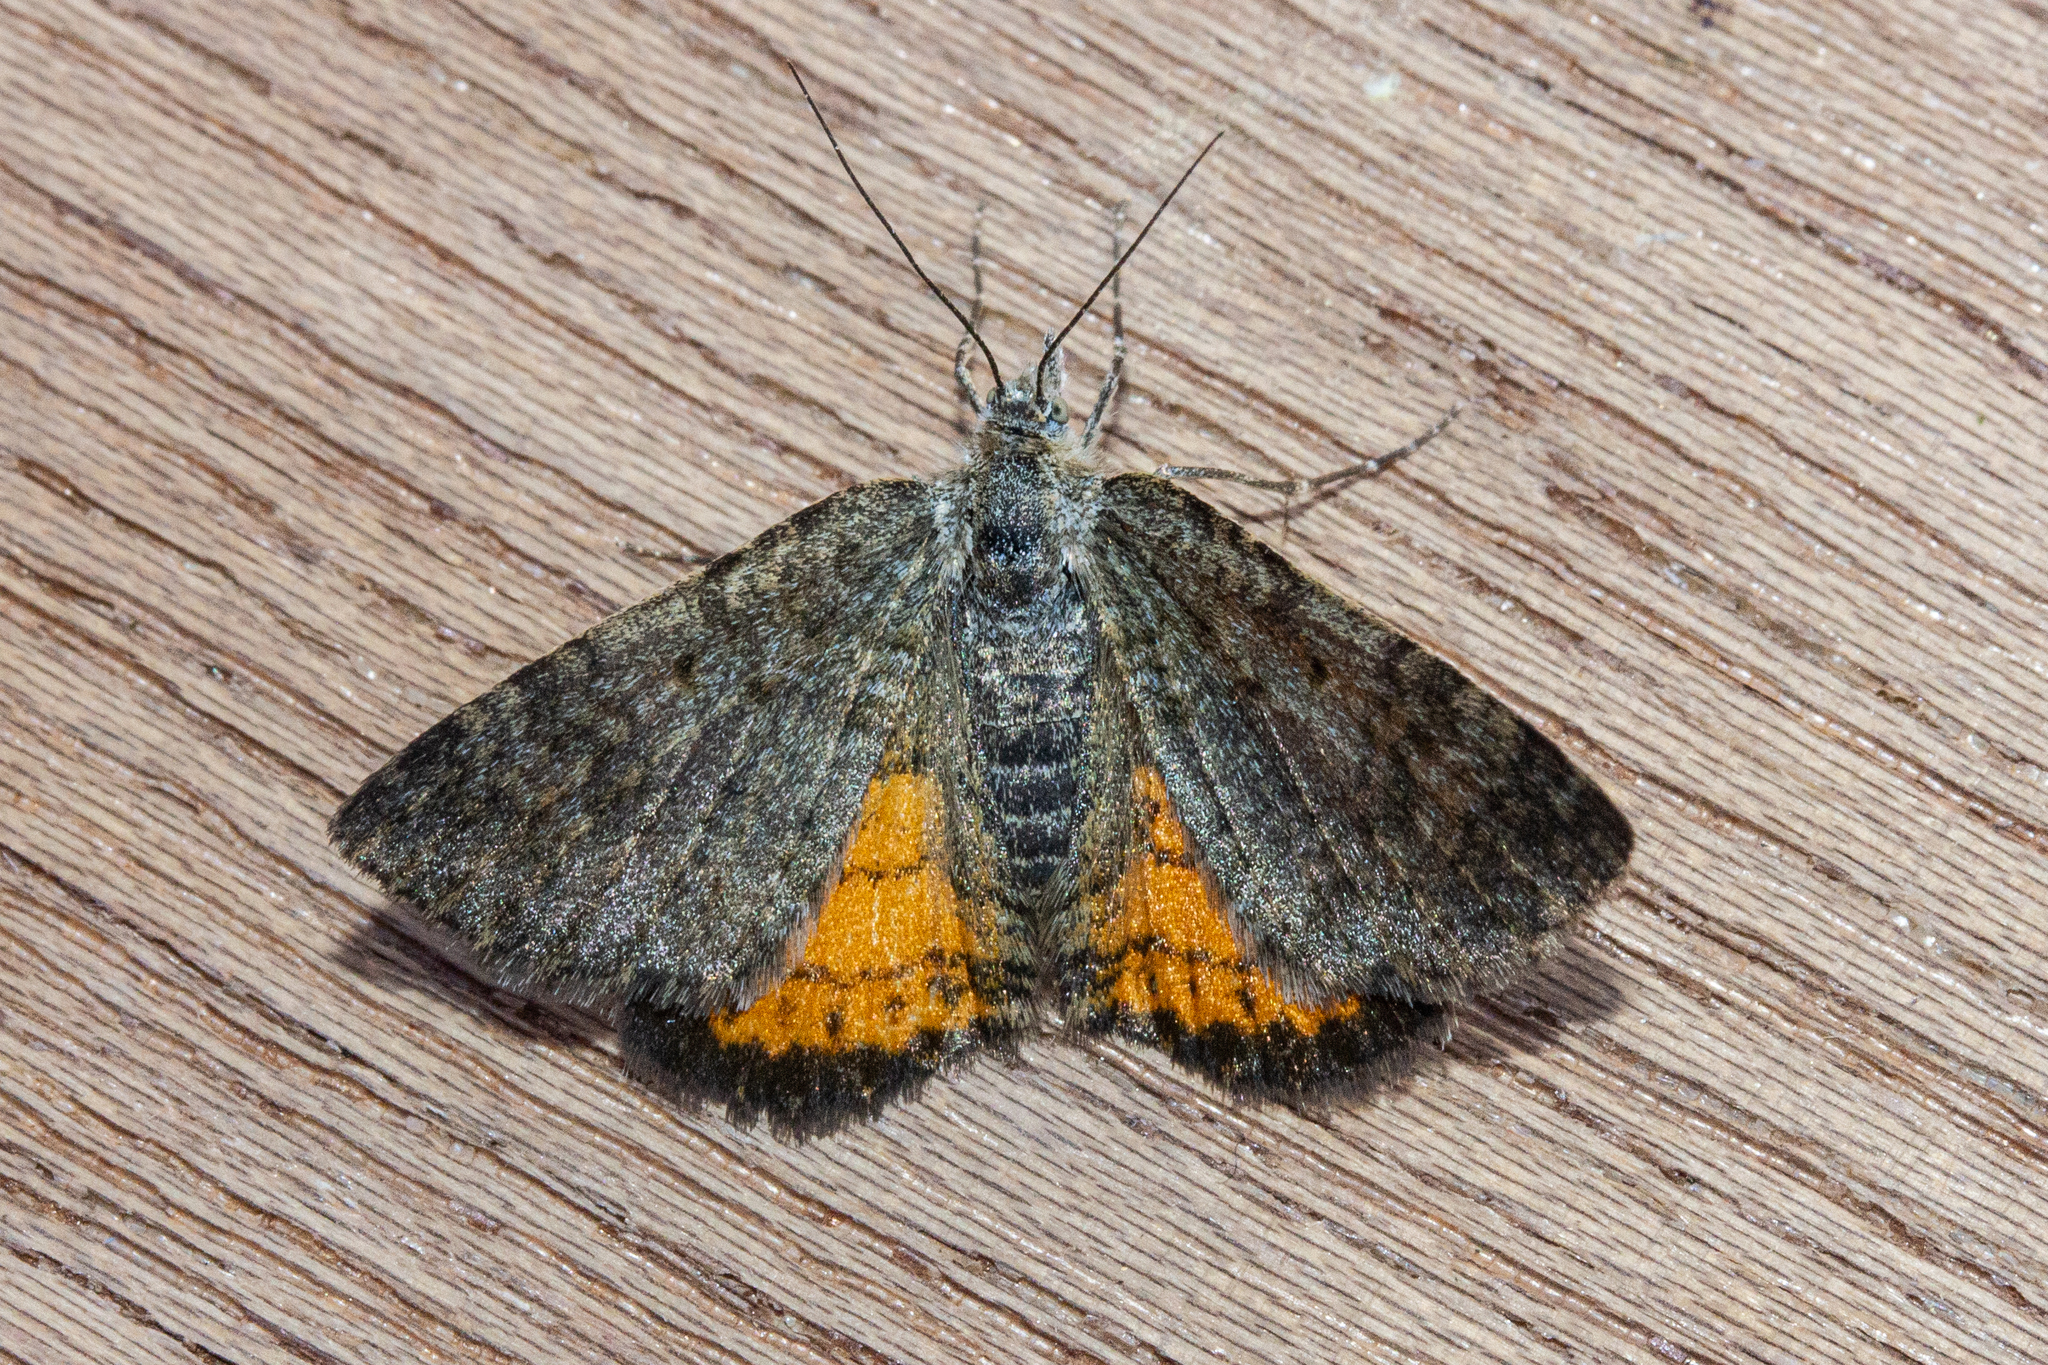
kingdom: Animalia
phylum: Arthropoda
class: Insecta
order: Lepidoptera
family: Geometridae
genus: Paranotoreas
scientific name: Paranotoreas brephosata
